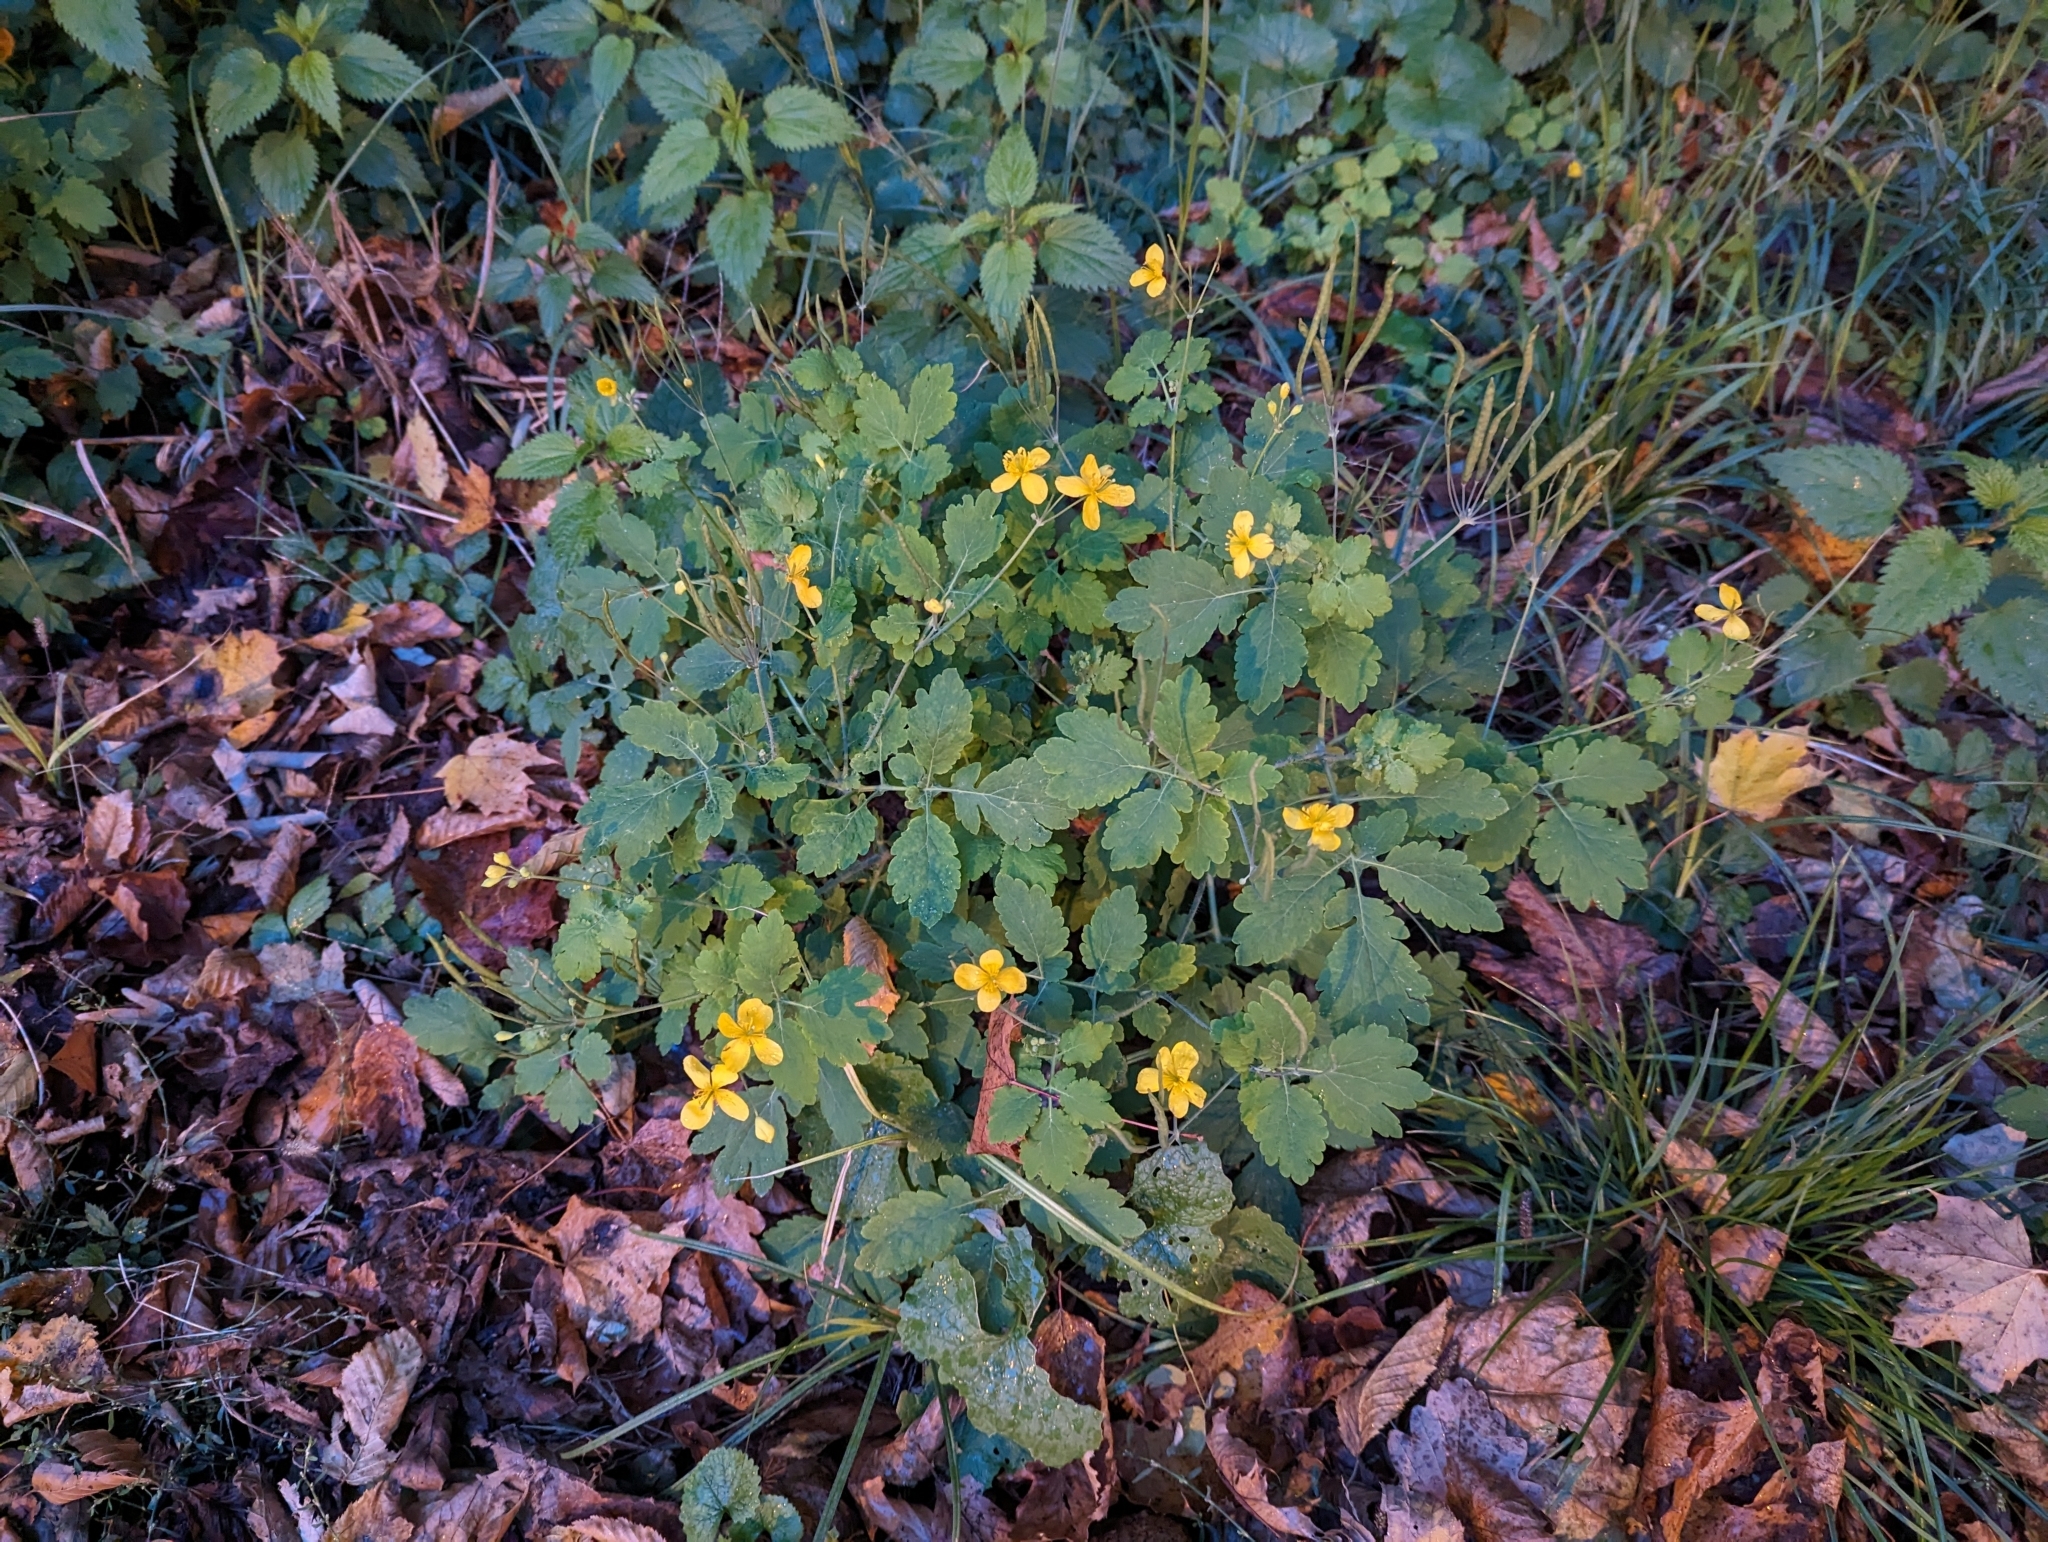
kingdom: Plantae
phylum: Tracheophyta
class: Magnoliopsida
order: Ranunculales
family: Papaveraceae
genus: Chelidonium
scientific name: Chelidonium majus
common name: Greater celandine
